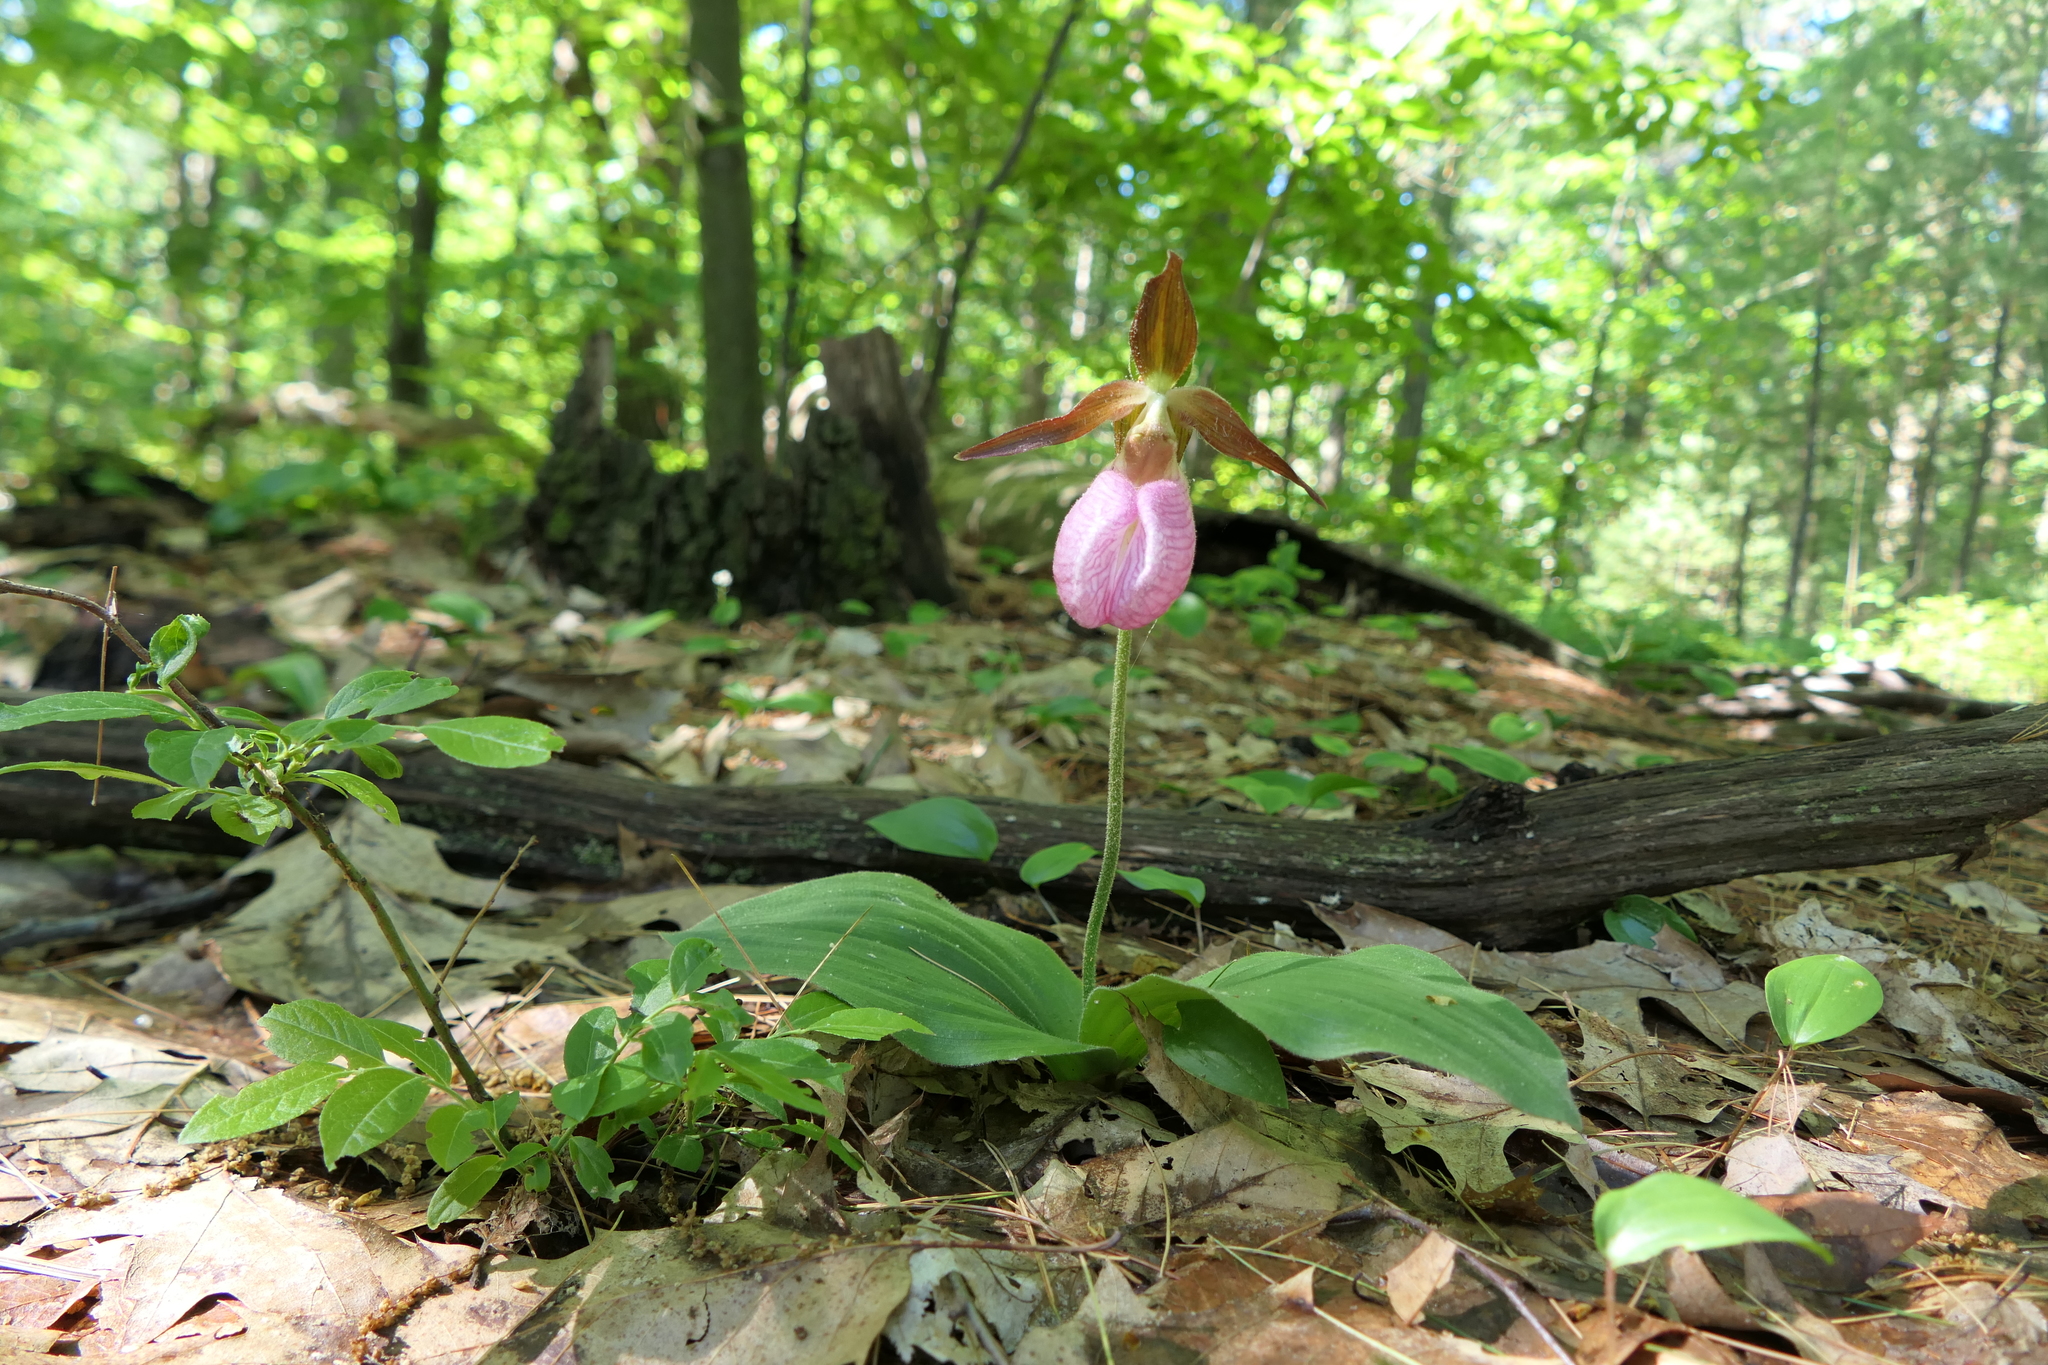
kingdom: Plantae
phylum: Tracheophyta
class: Liliopsida
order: Asparagales
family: Orchidaceae
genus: Cypripedium
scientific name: Cypripedium acaule
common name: Pink lady's-slipper
